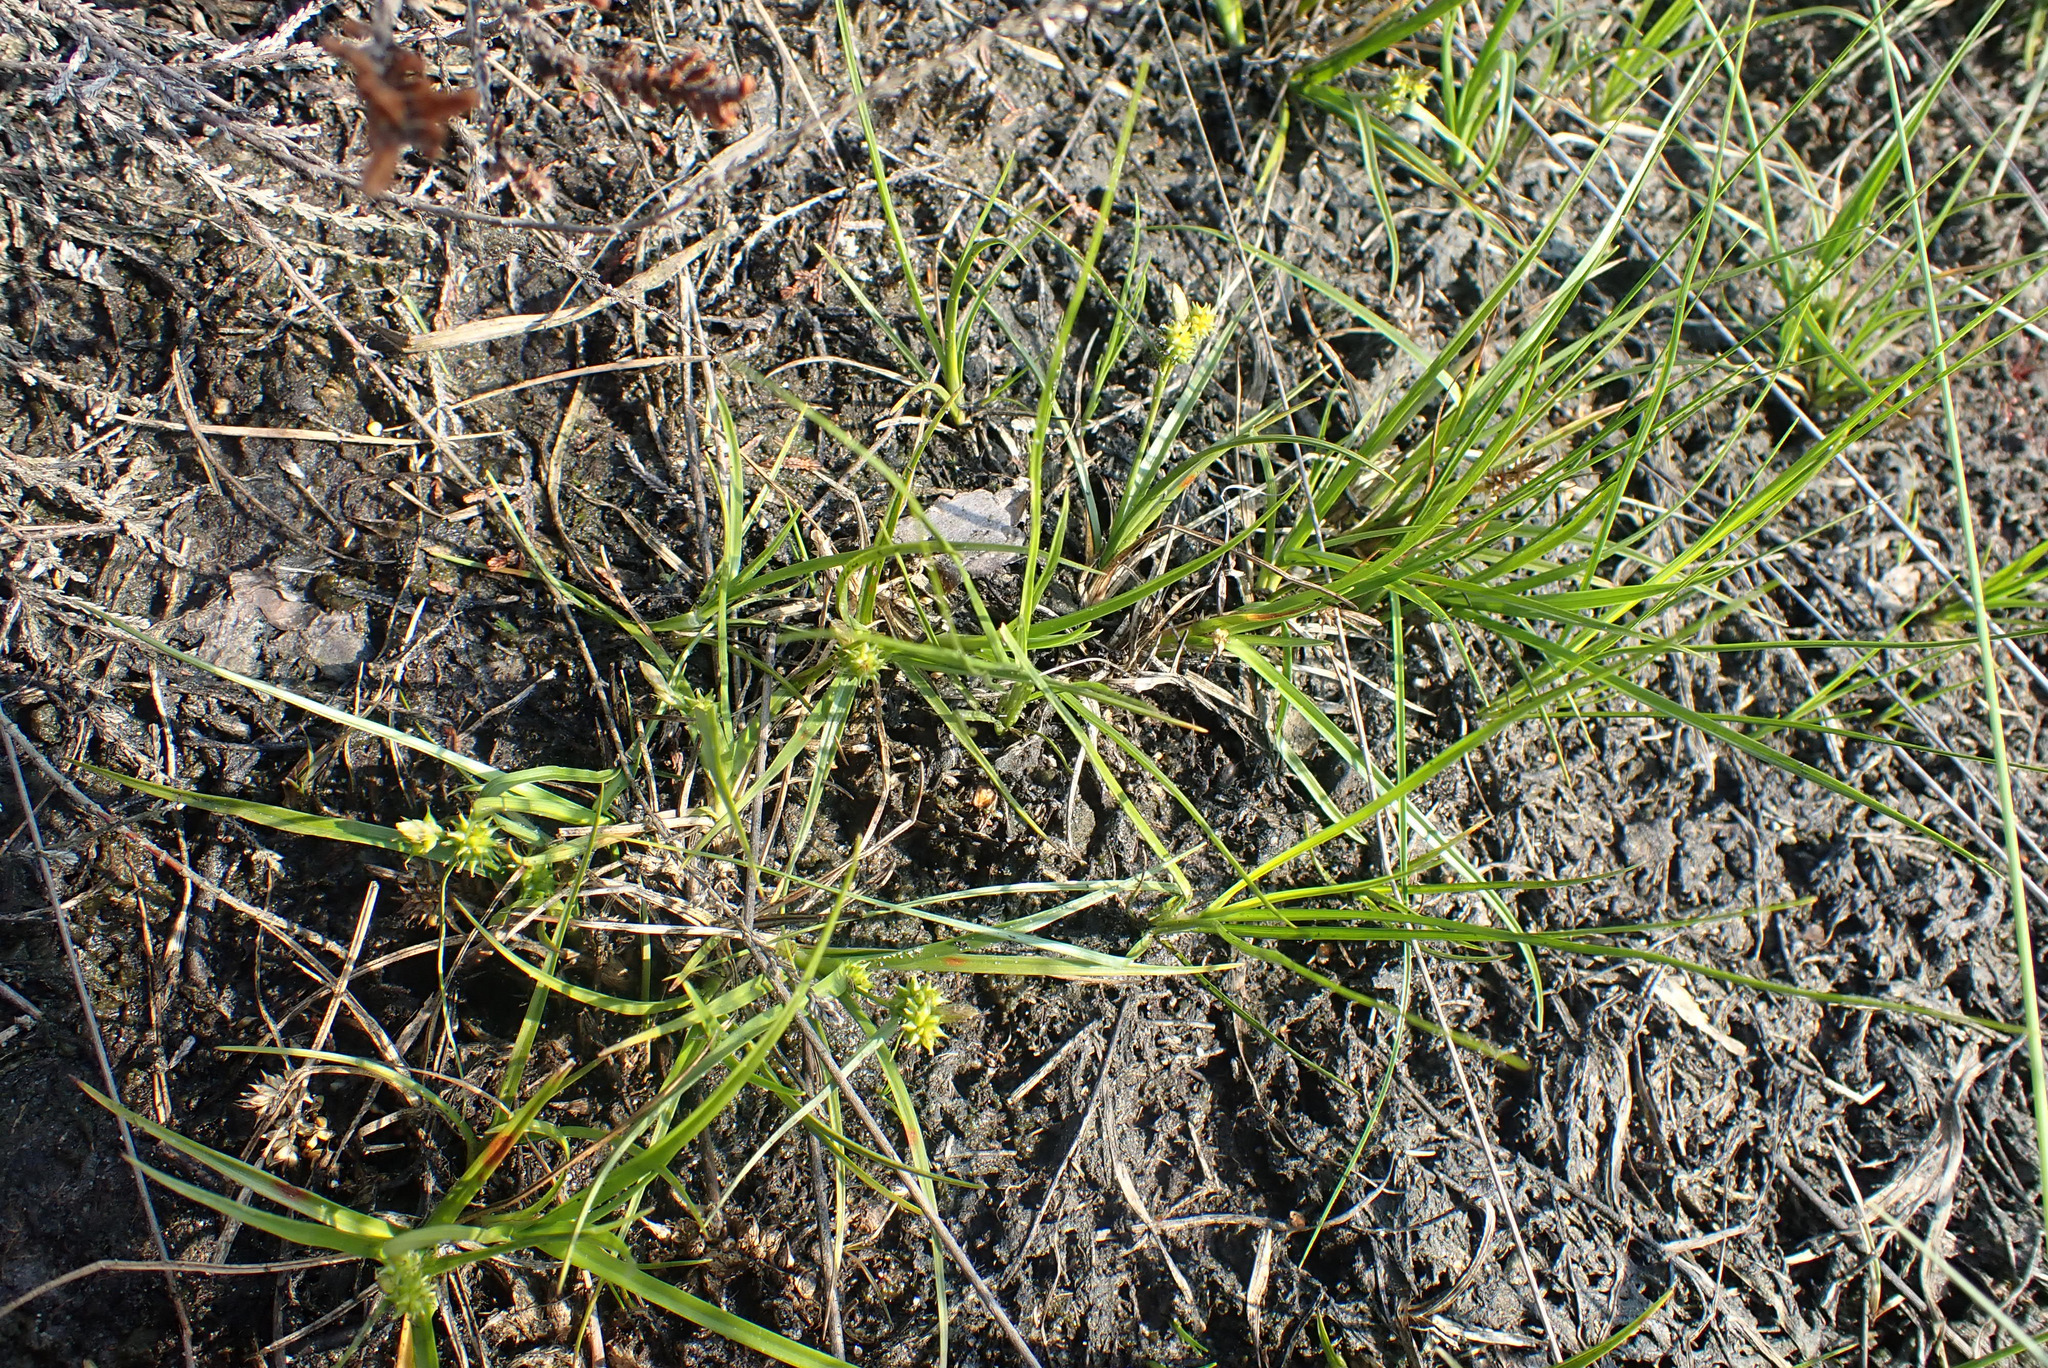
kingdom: Plantae
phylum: Tracheophyta
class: Liliopsida
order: Poales
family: Cyperaceae
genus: Carex
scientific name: Carex
